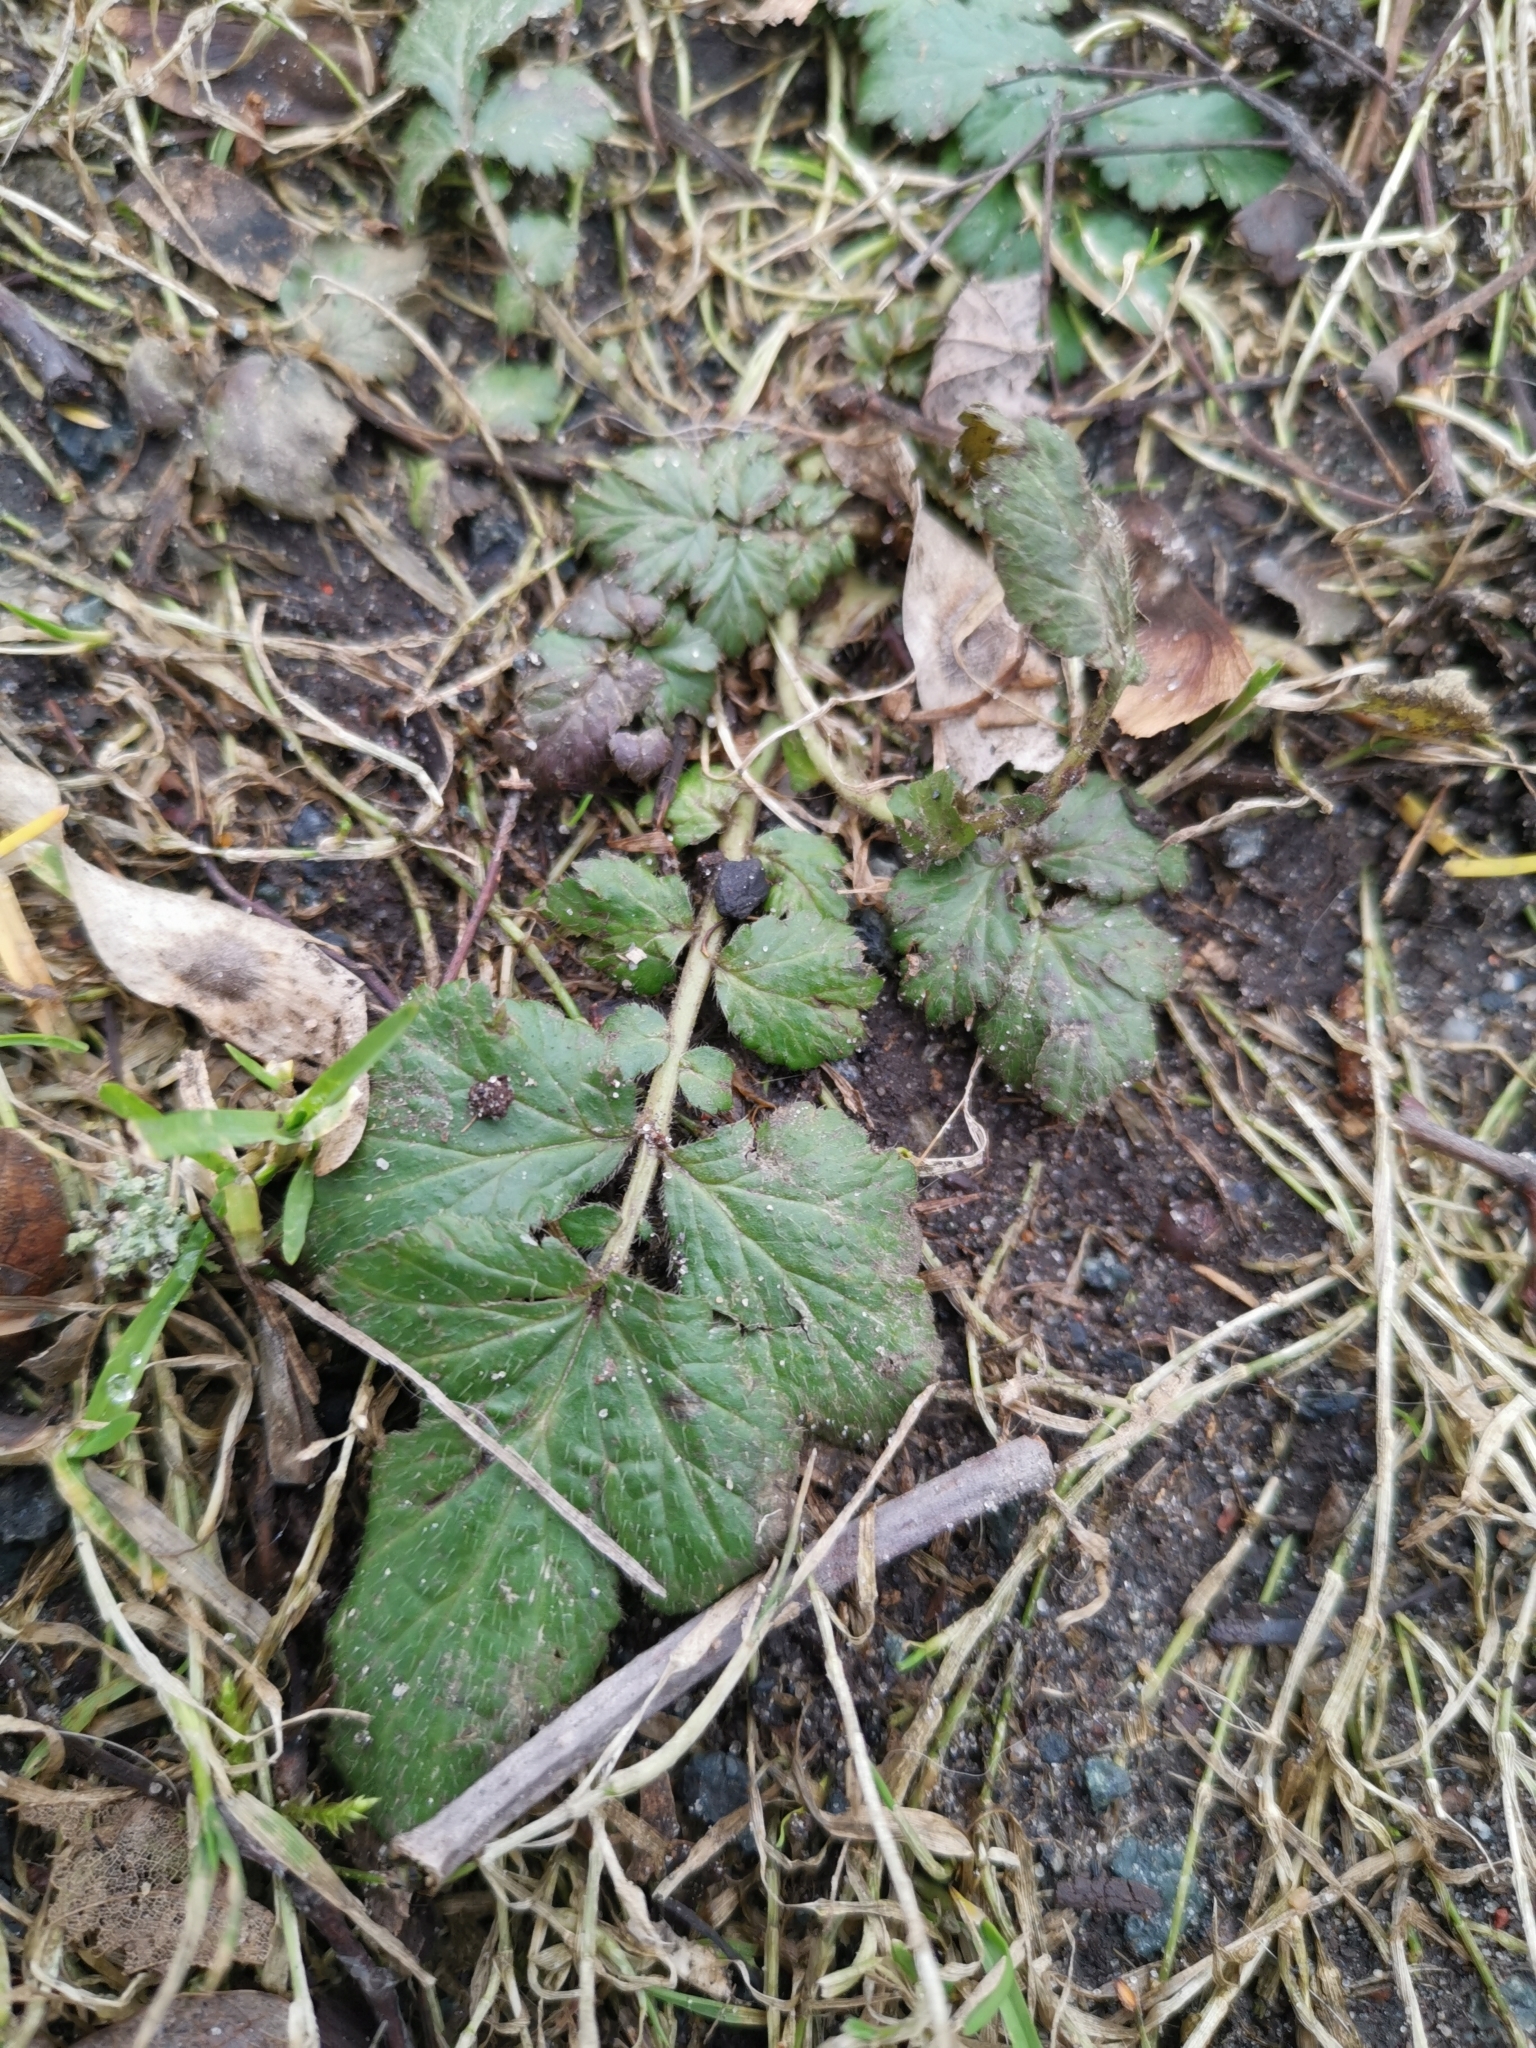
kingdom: Plantae
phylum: Tracheophyta
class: Magnoliopsida
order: Rosales
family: Rosaceae
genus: Geum
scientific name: Geum urbanum
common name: Wood avens
